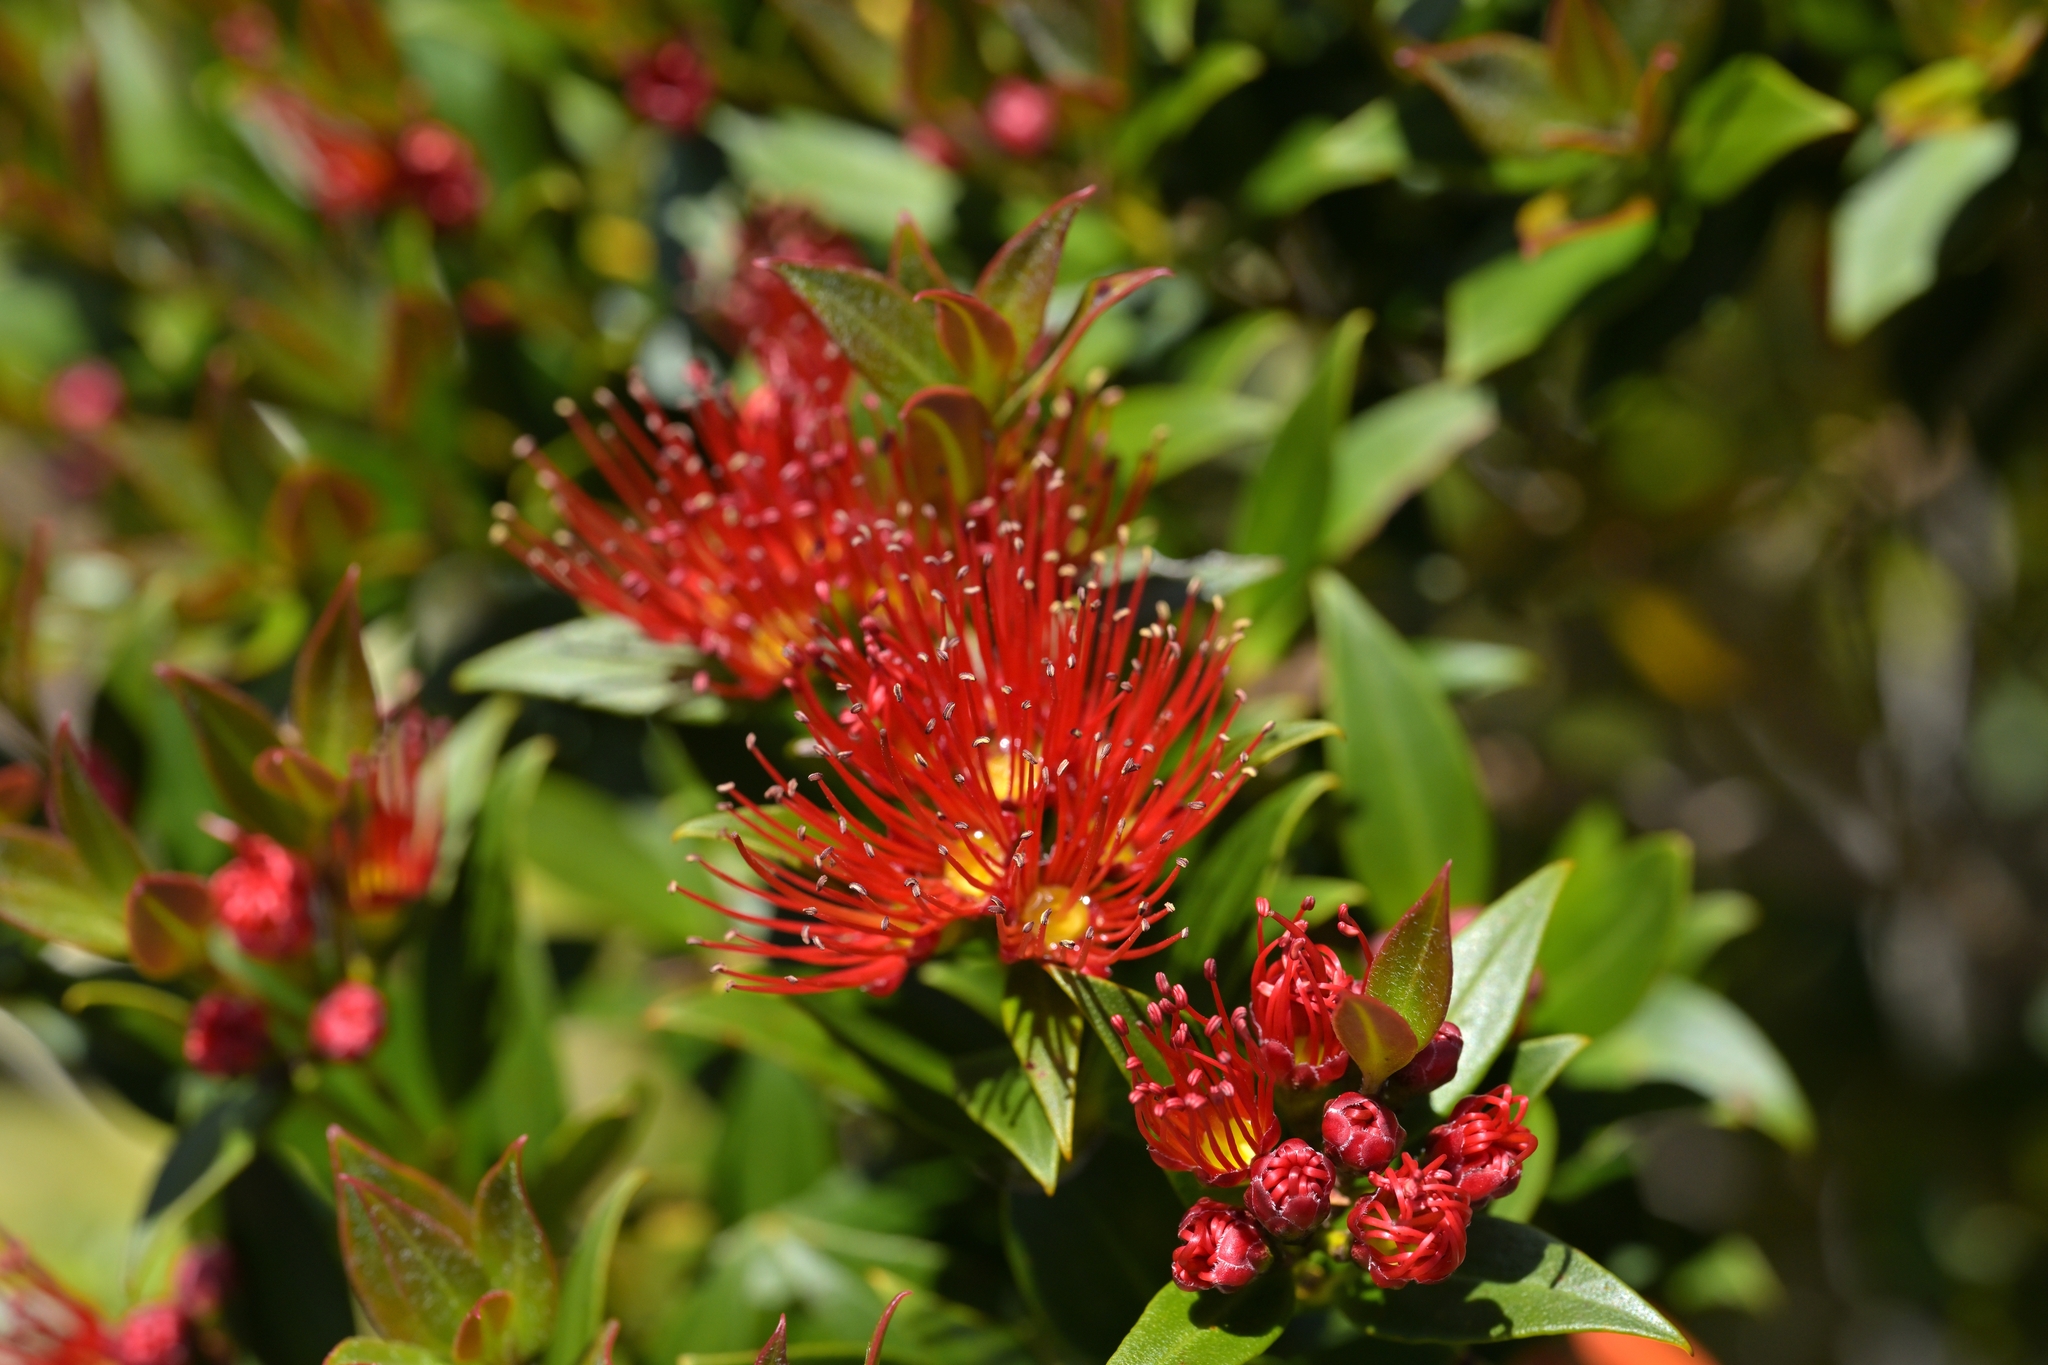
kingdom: Plantae
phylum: Tracheophyta
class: Magnoliopsida
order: Myrtales
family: Myrtaceae
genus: Metrosideros
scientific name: Metrosideros umbellata
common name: Southern rata
